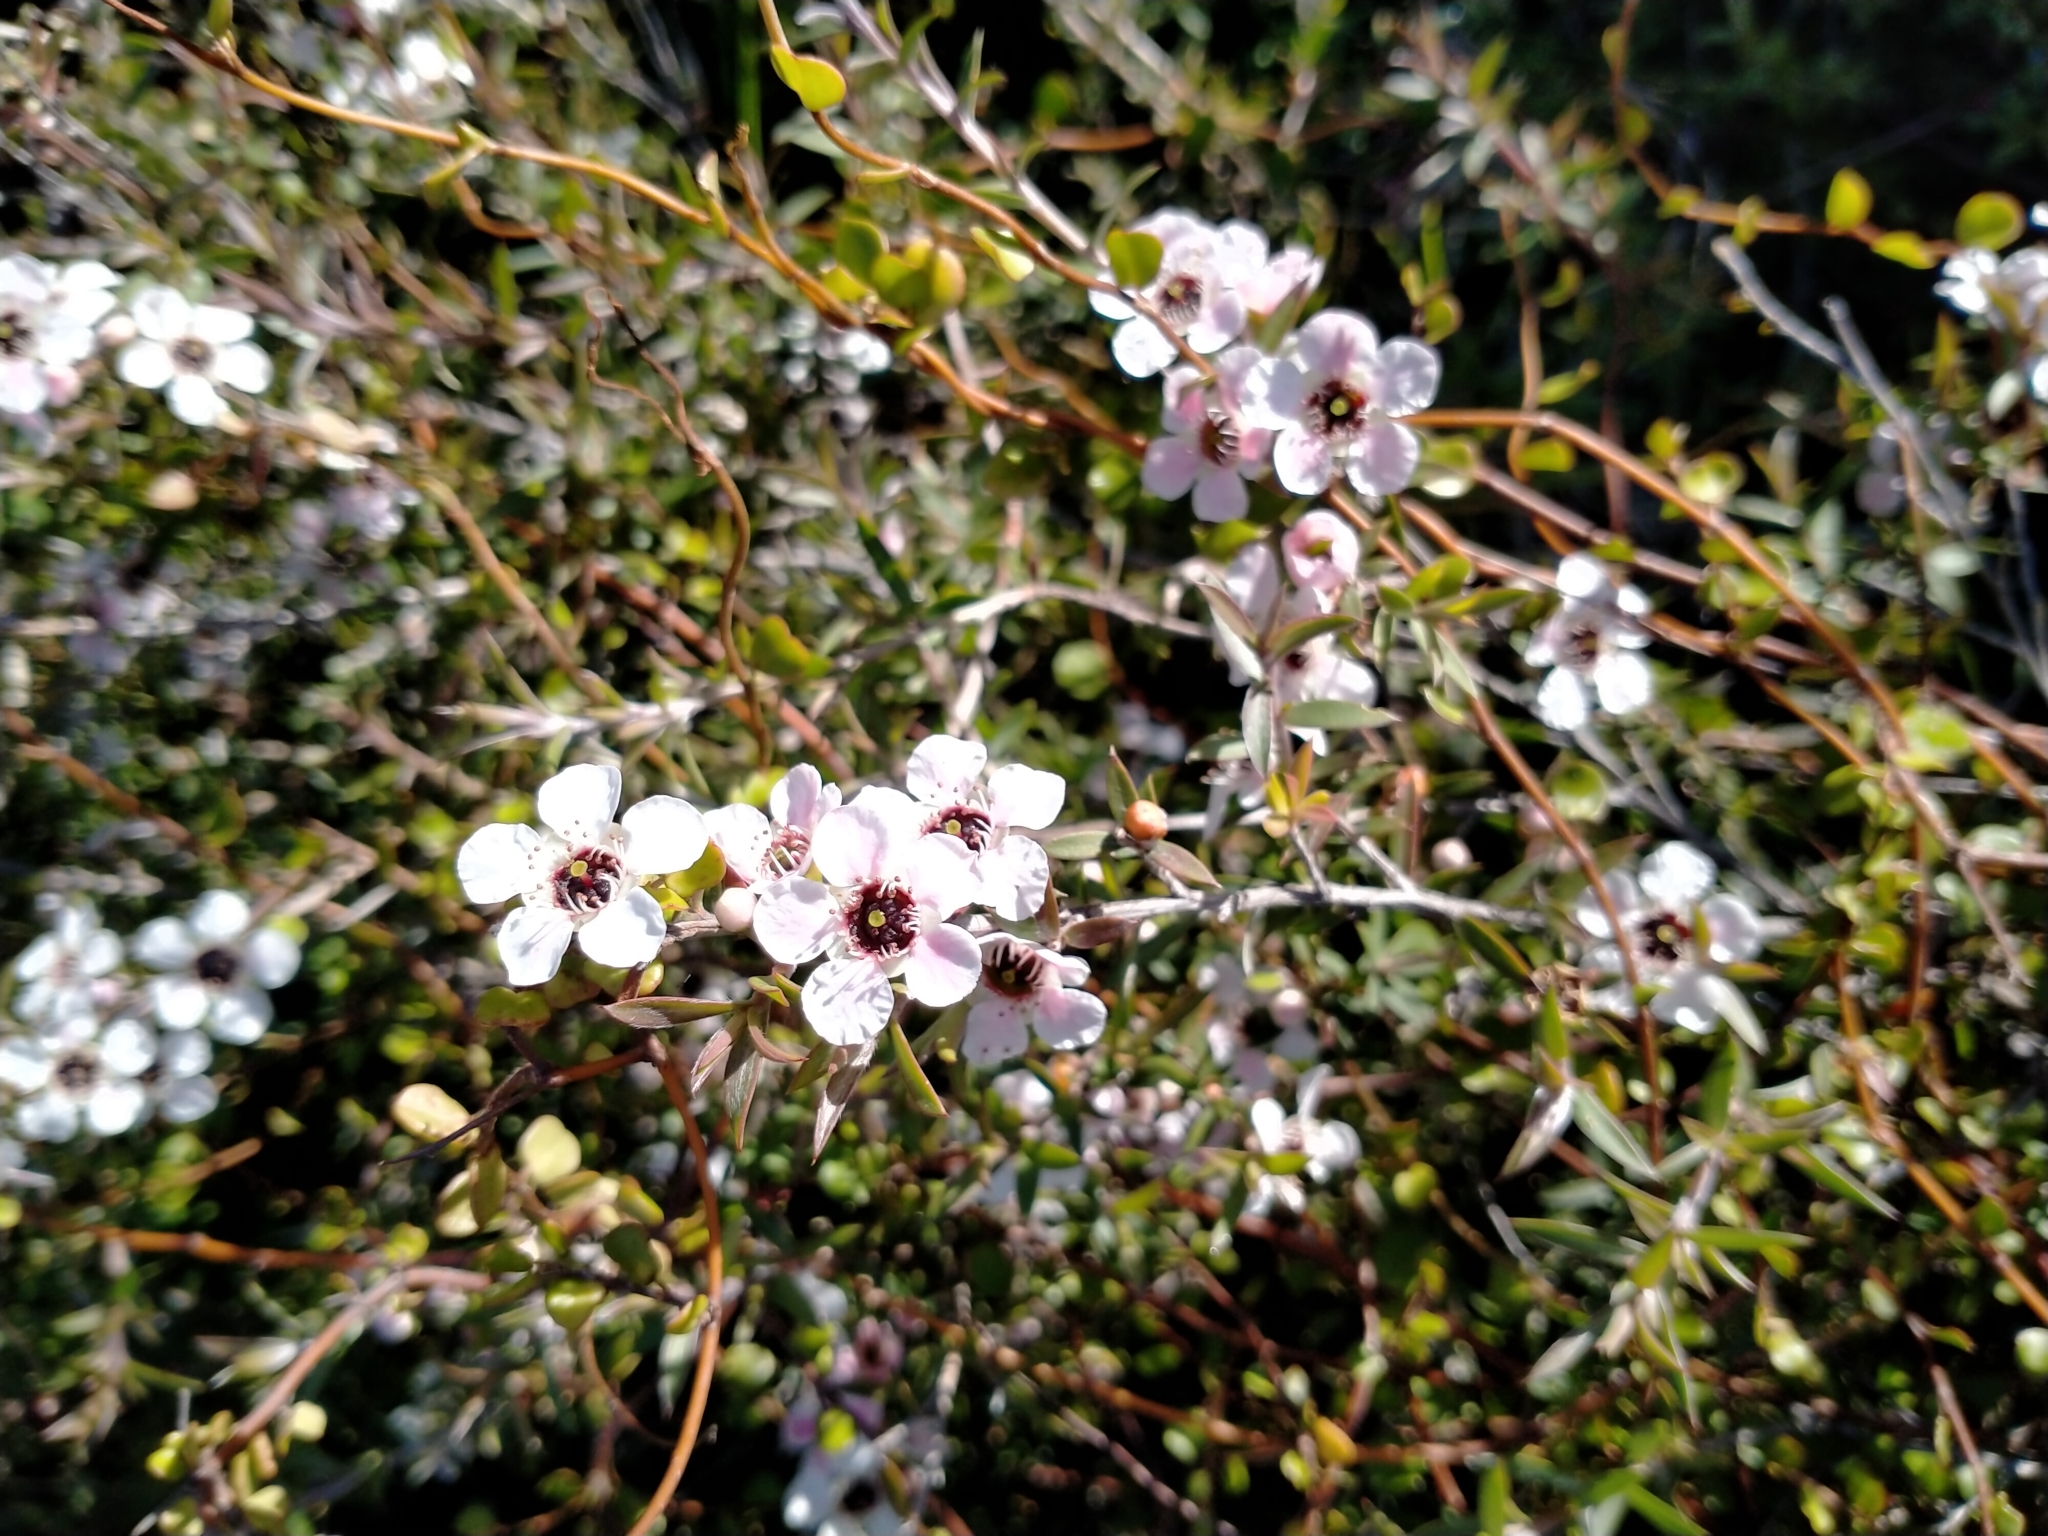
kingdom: Plantae
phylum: Tracheophyta
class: Magnoliopsida
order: Myrtales
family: Myrtaceae
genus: Leptospermum
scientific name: Leptospermum scoparium
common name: Broom tea-tree
